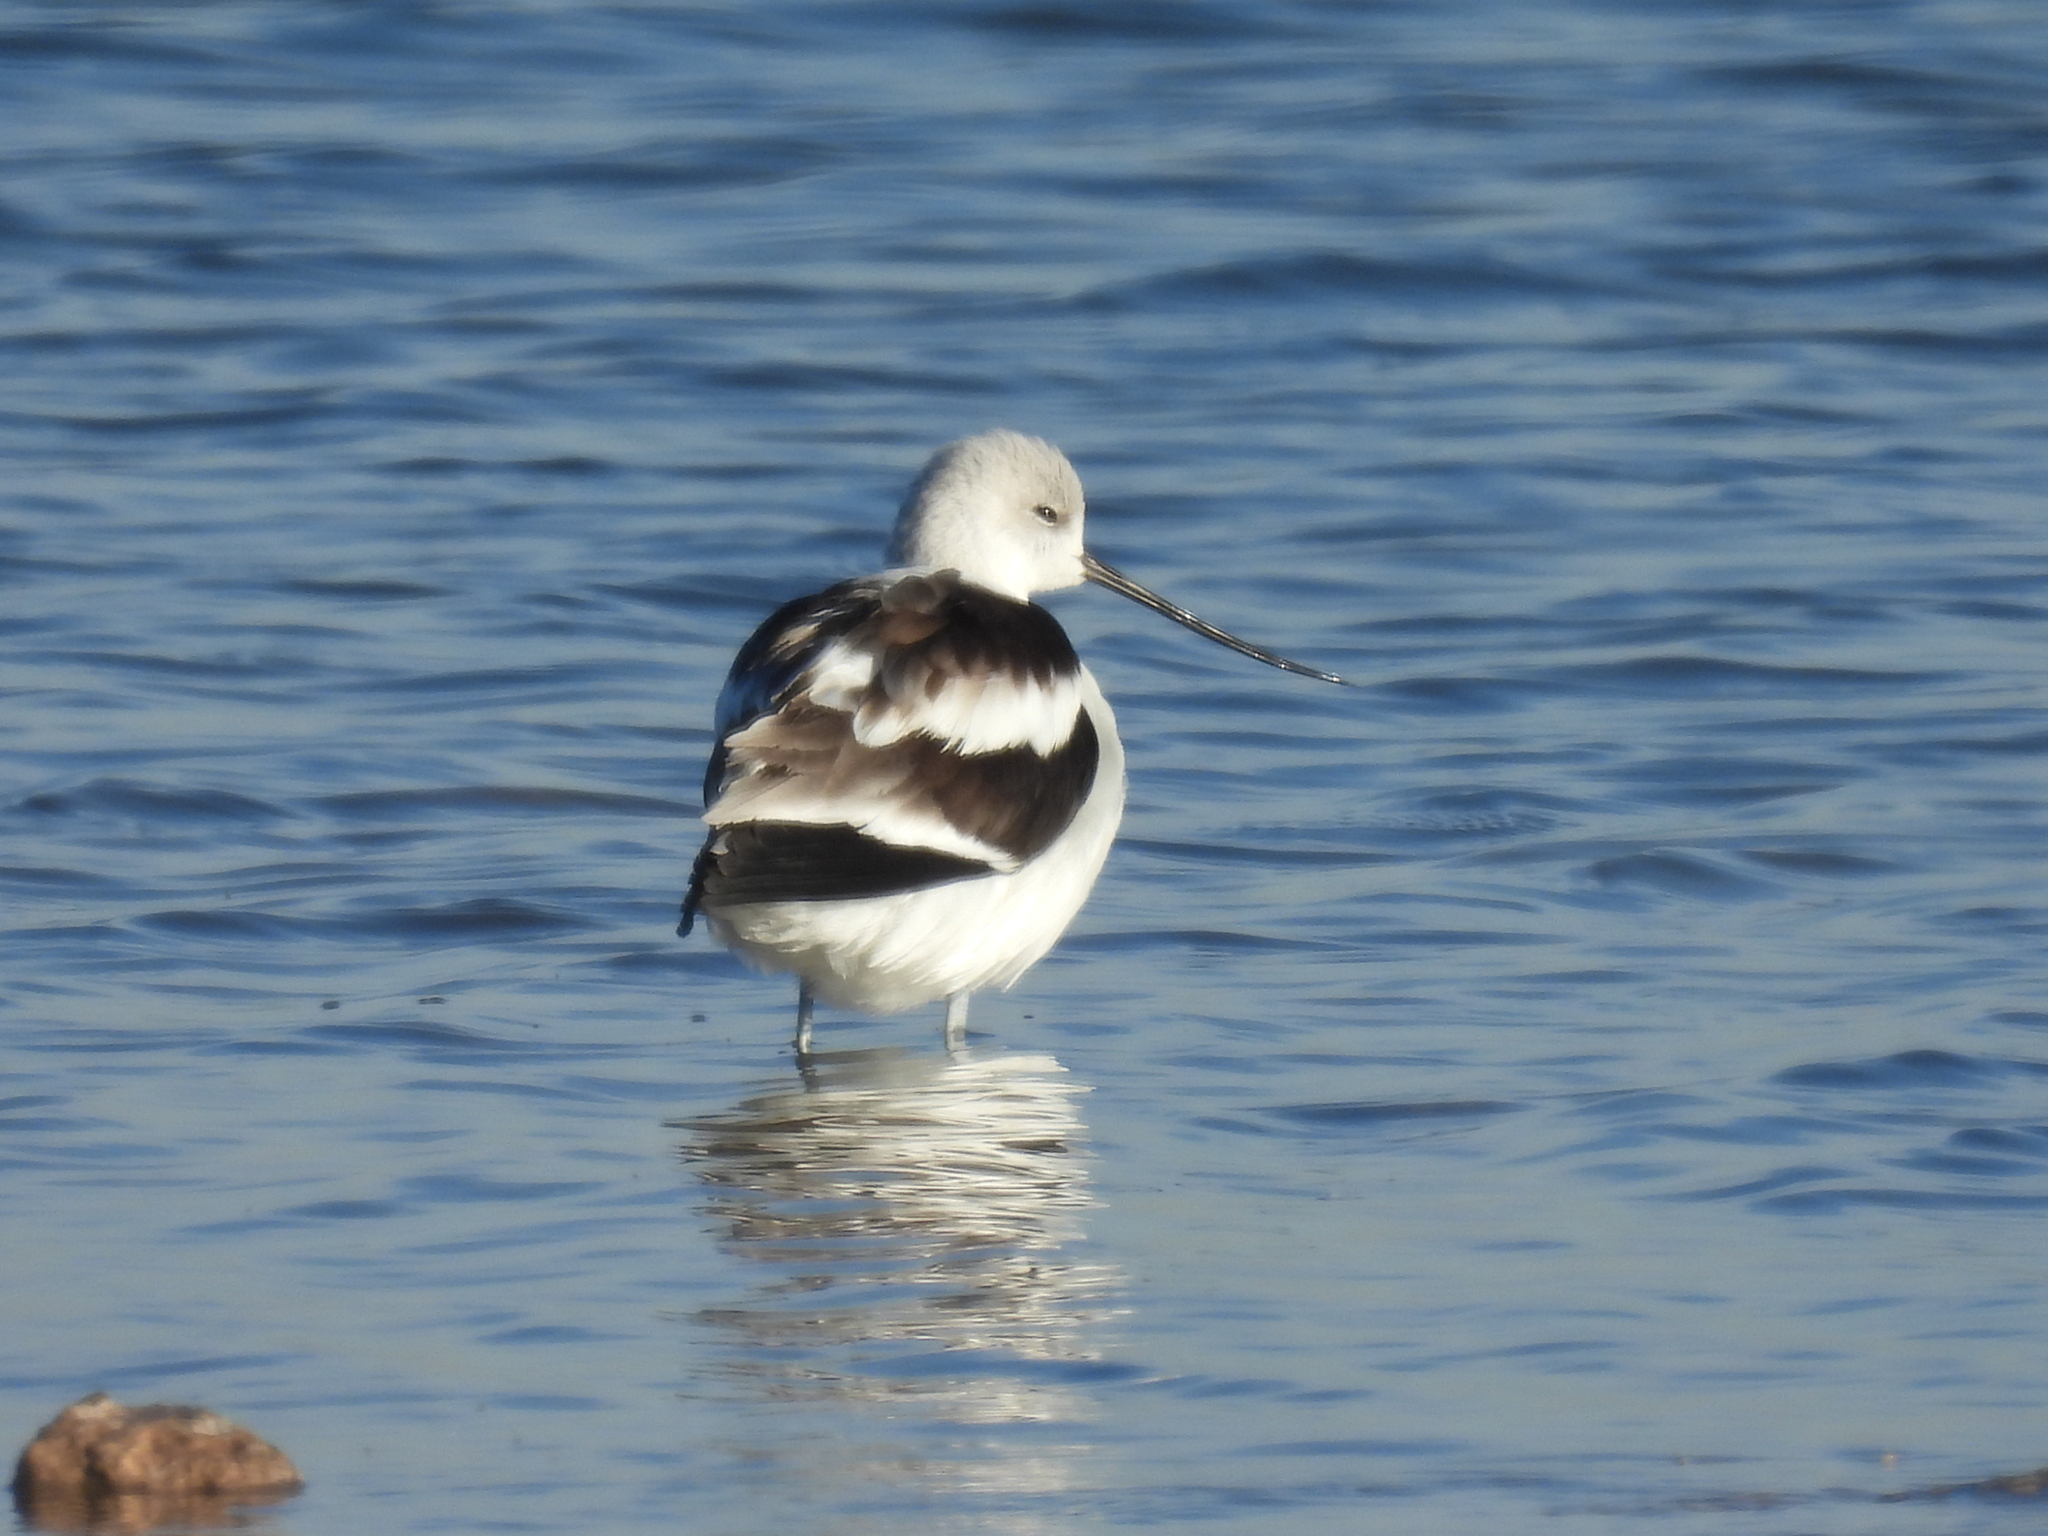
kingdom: Animalia
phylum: Chordata
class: Aves
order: Charadriiformes
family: Recurvirostridae
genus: Recurvirostra
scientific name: Recurvirostra americana
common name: American avocet
